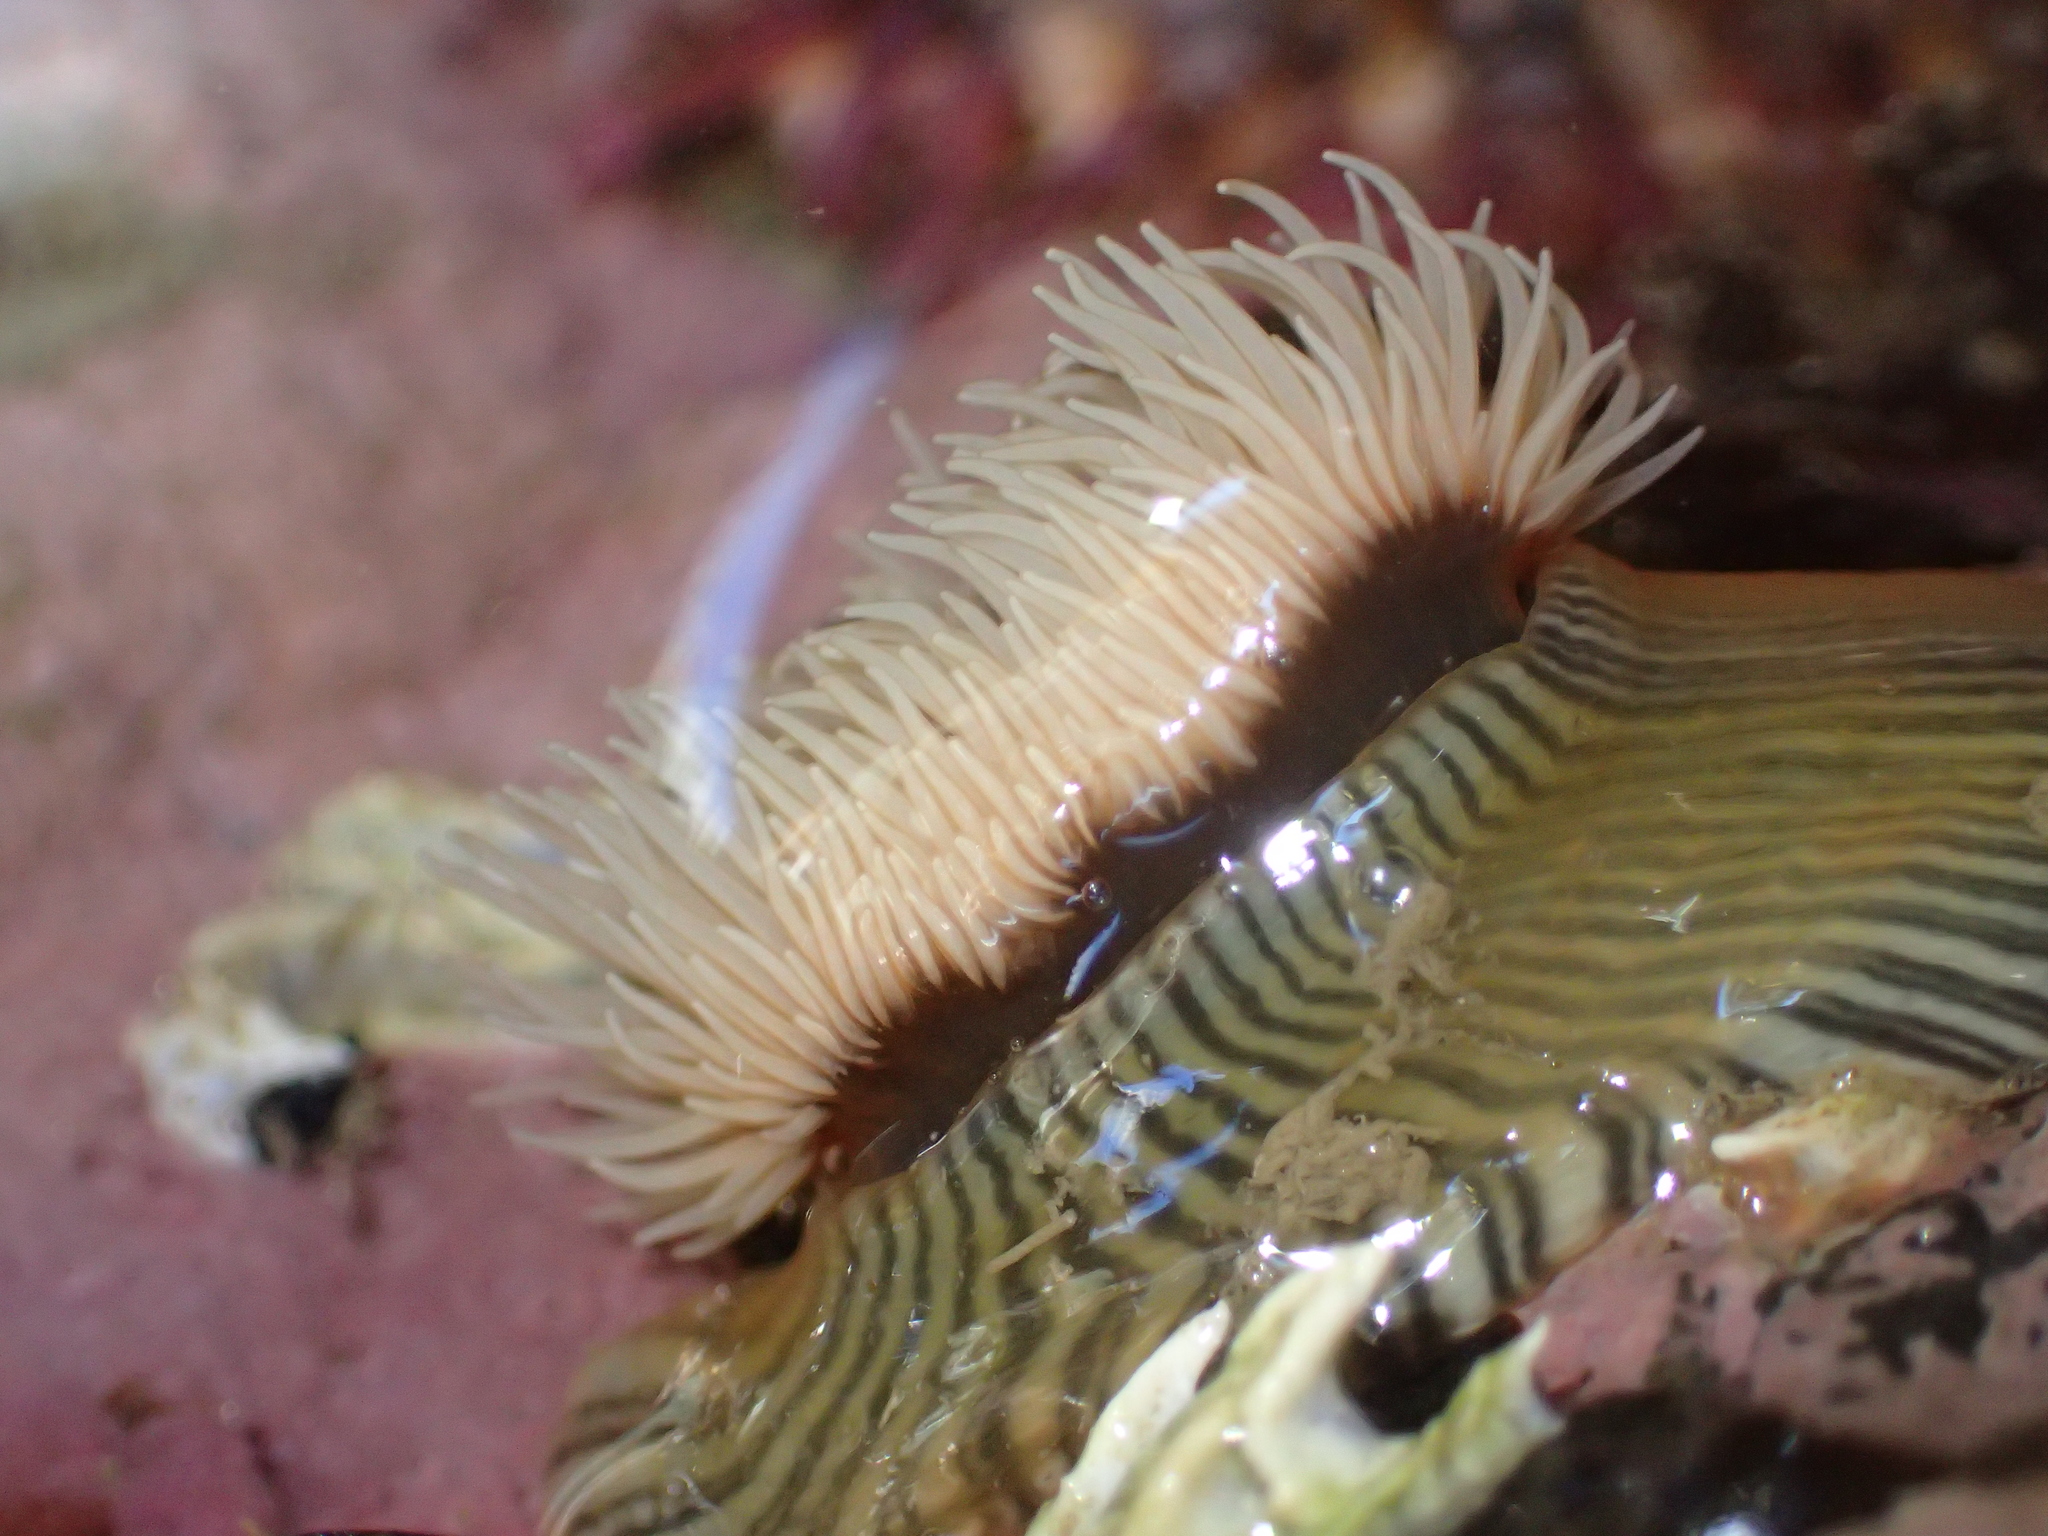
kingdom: Animalia
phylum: Cnidaria
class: Anthozoa
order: Actiniaria
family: Diadumenidae
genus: Diadumene
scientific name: Diadumene neozelanica
